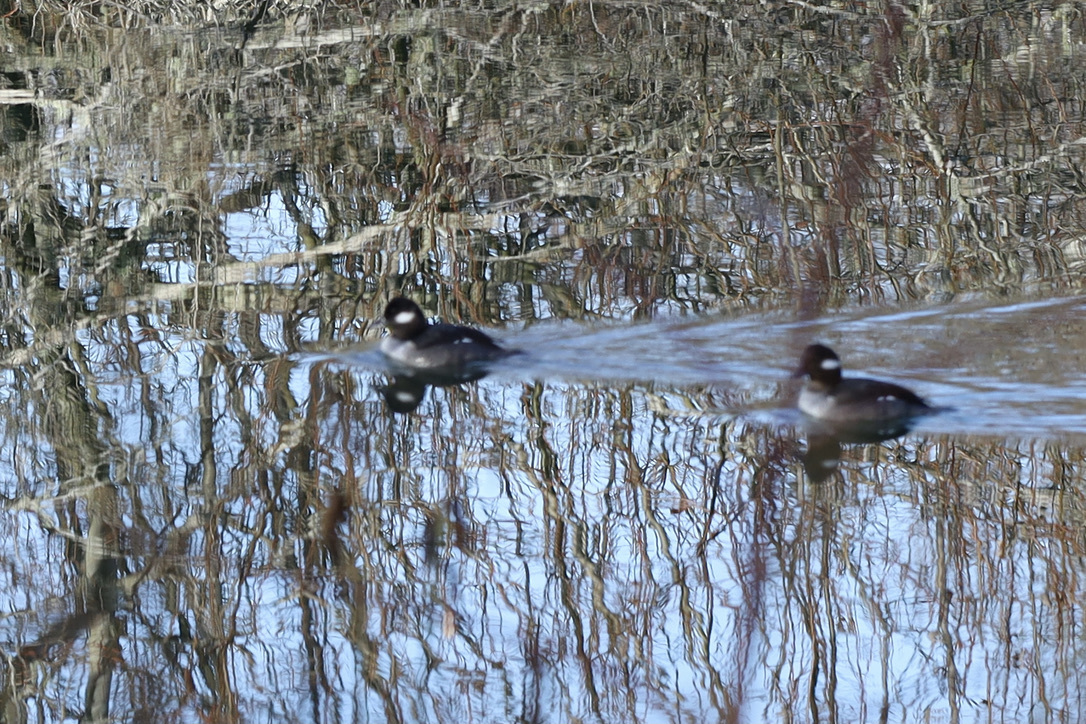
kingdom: Animalia
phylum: Chordata
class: Aves
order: Anseriformes
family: Anatidae
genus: Bucephala
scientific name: Bucephala albeola
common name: Bufflehead
